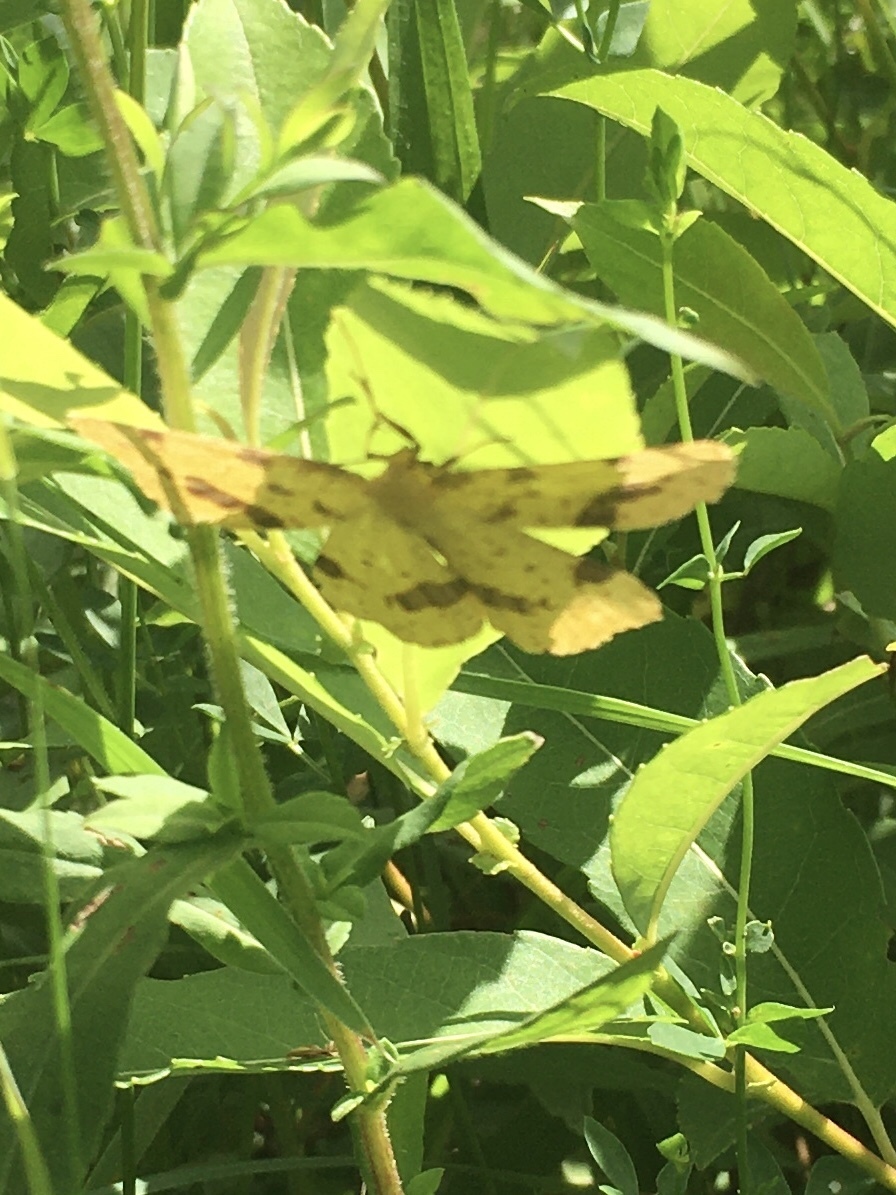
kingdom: Animalia
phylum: Arthropoda
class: Insecta
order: Lepidoptera
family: Geometridae
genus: Xanthotype
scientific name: Xanthotype
